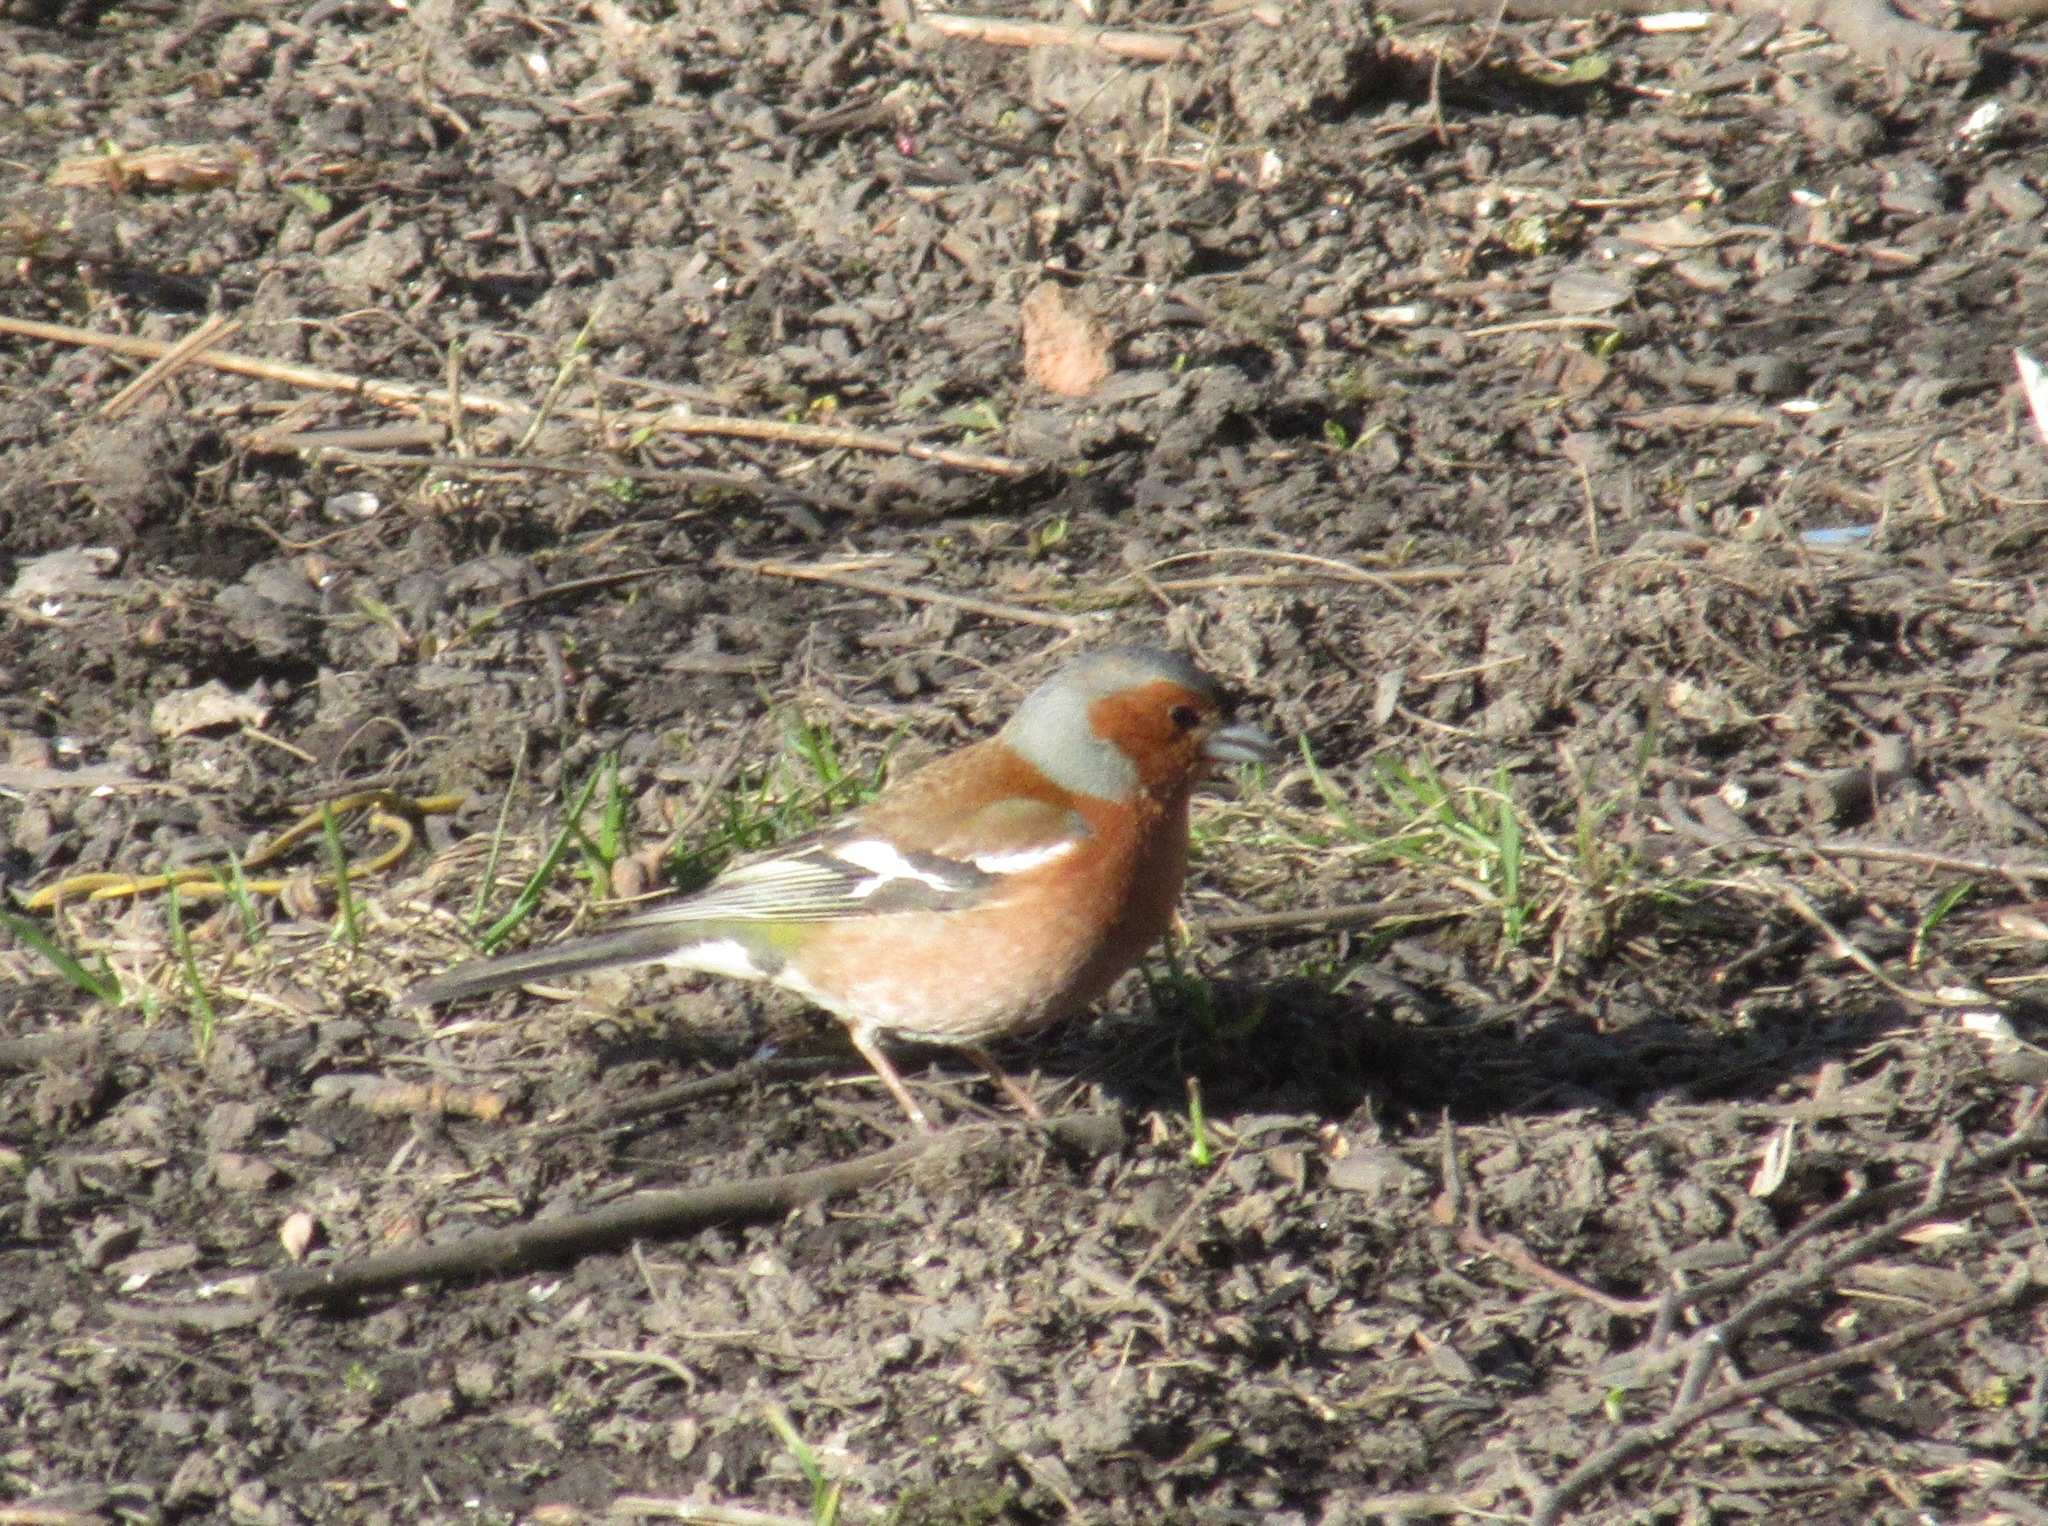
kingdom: Animalia
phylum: Chordata
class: Aves
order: Passeriformes
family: Fringillidae
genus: Fringilla
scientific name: Fringilla coelebs
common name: Common chaffinch
